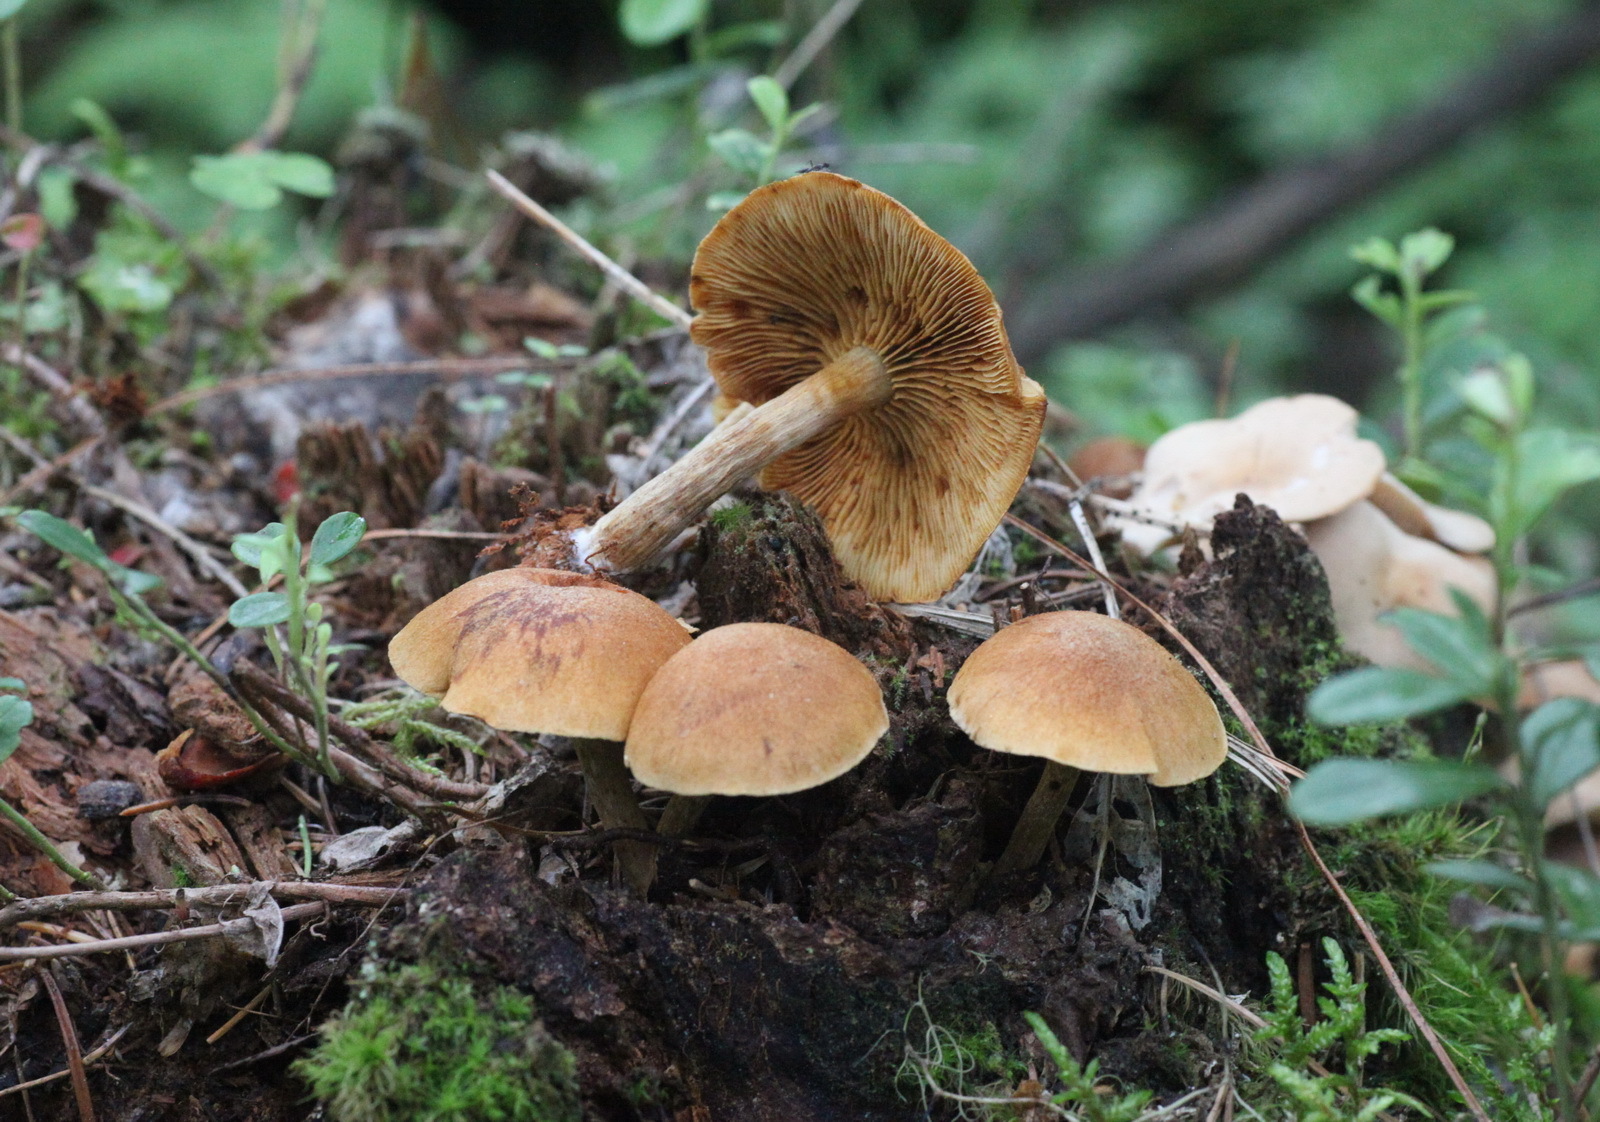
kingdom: Fungi
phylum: Basidiomycota
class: Agaricomycetes
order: Agaricales
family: Hymenogastraceae
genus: Gymnopilus
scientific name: Gymnopilus penetrans
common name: Common rustgill
